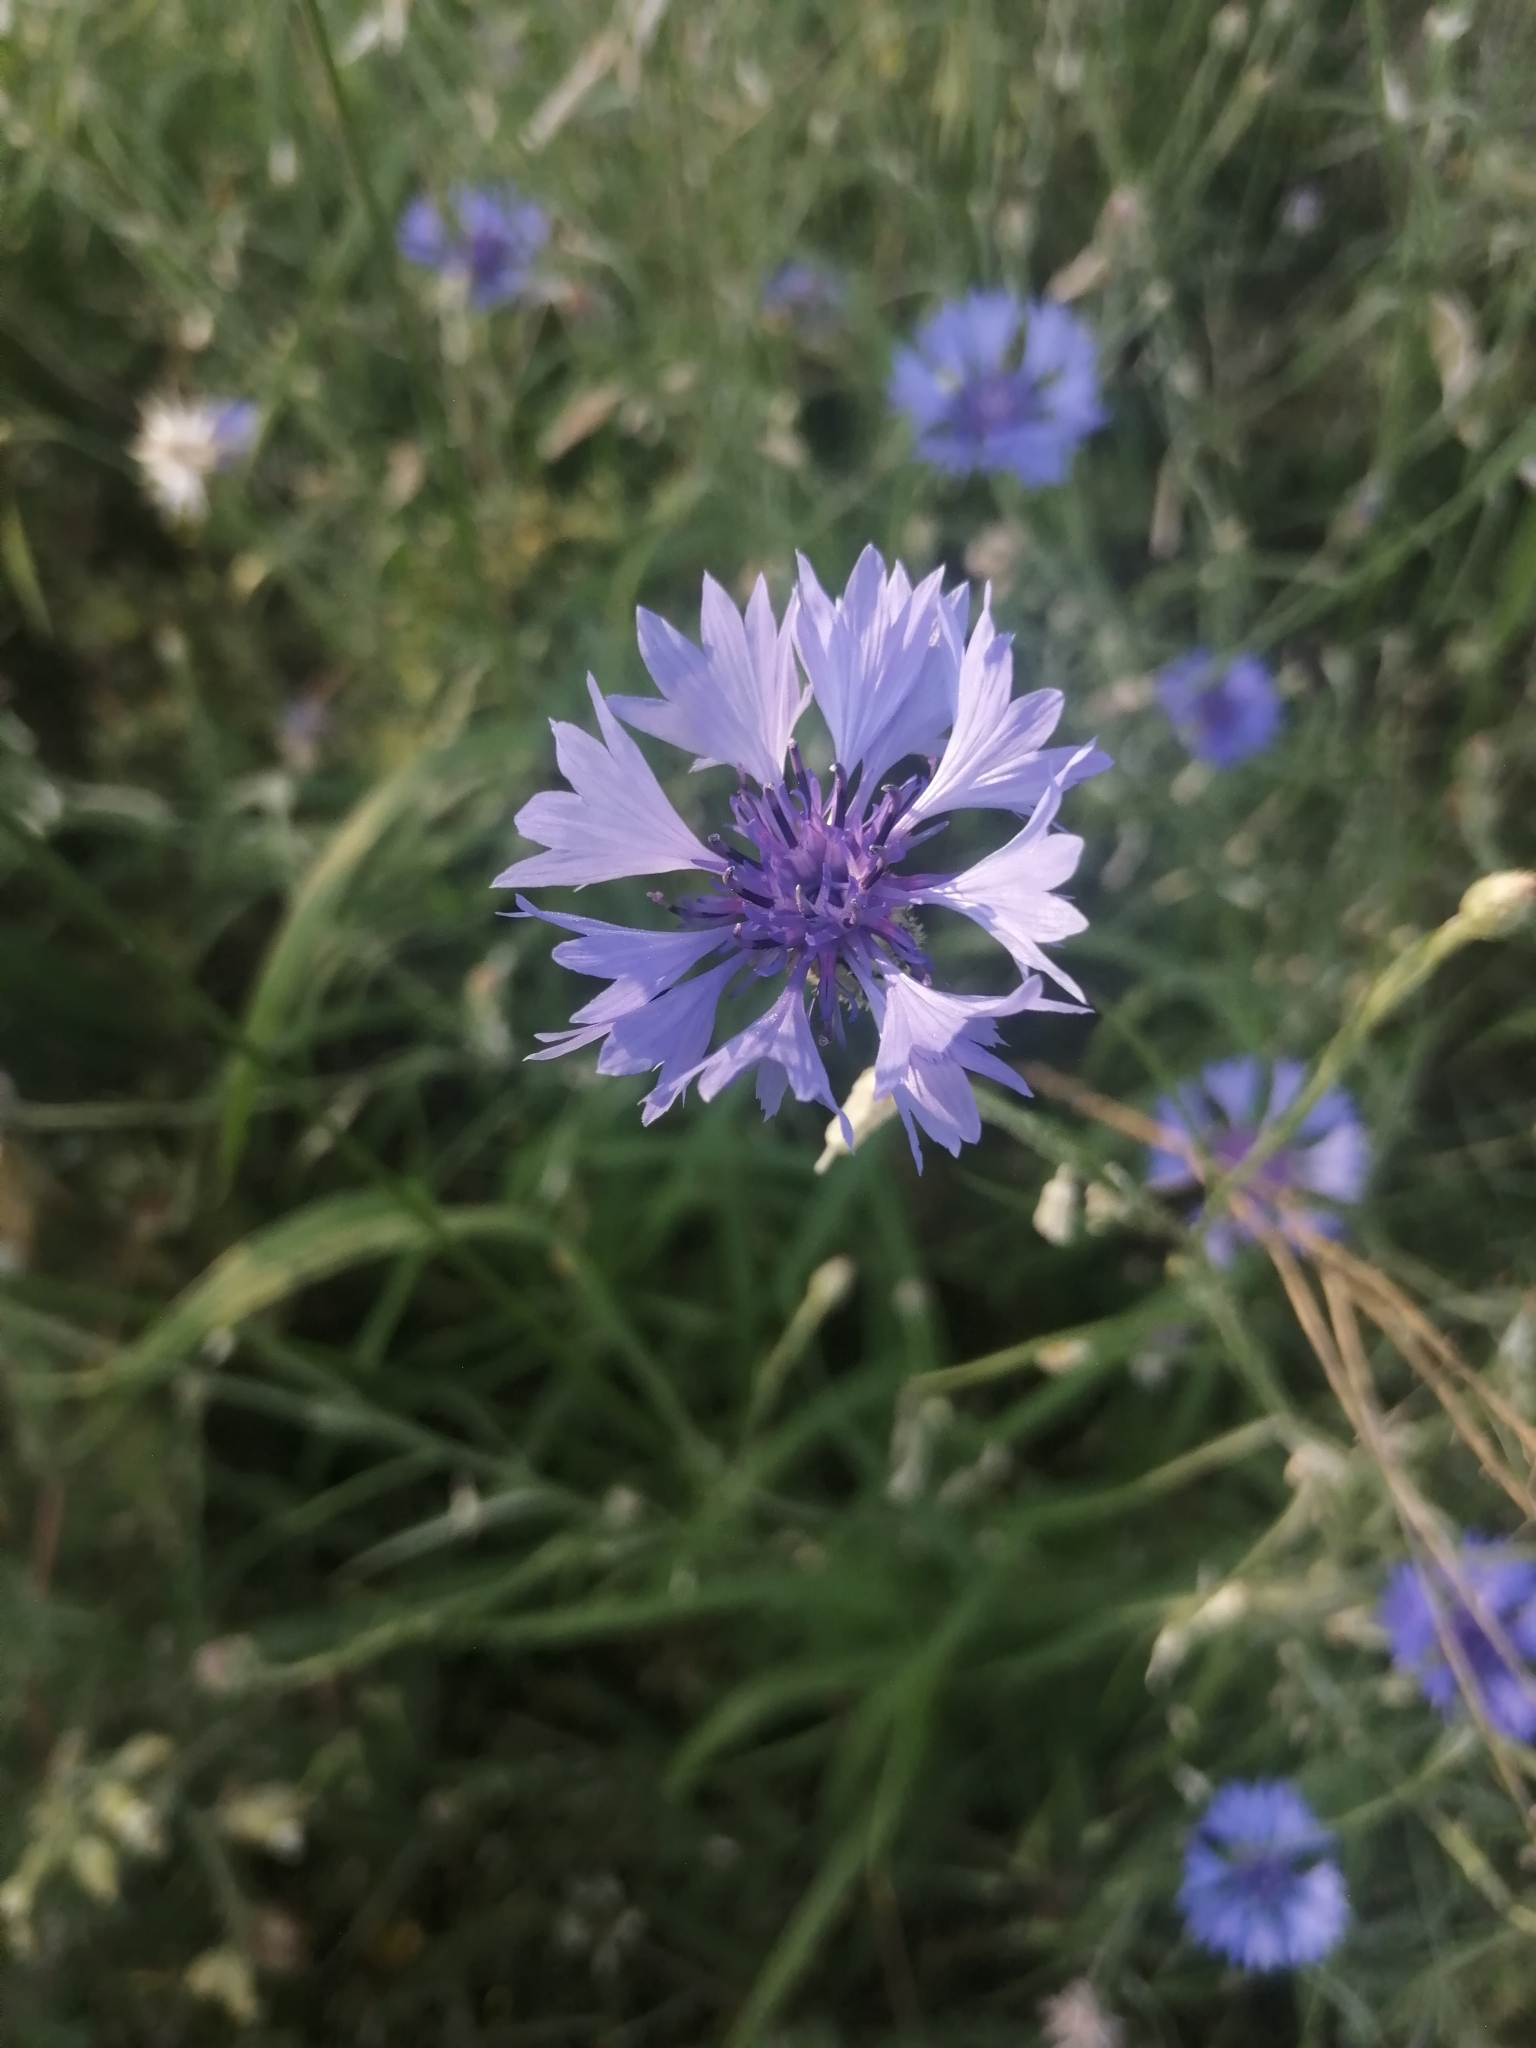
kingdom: Plantae
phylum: Tracheophyta
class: Magnoliopsida
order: Asterales
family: Asteraceae
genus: Centaurea
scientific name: Centaurea cyanus
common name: Cornflower
